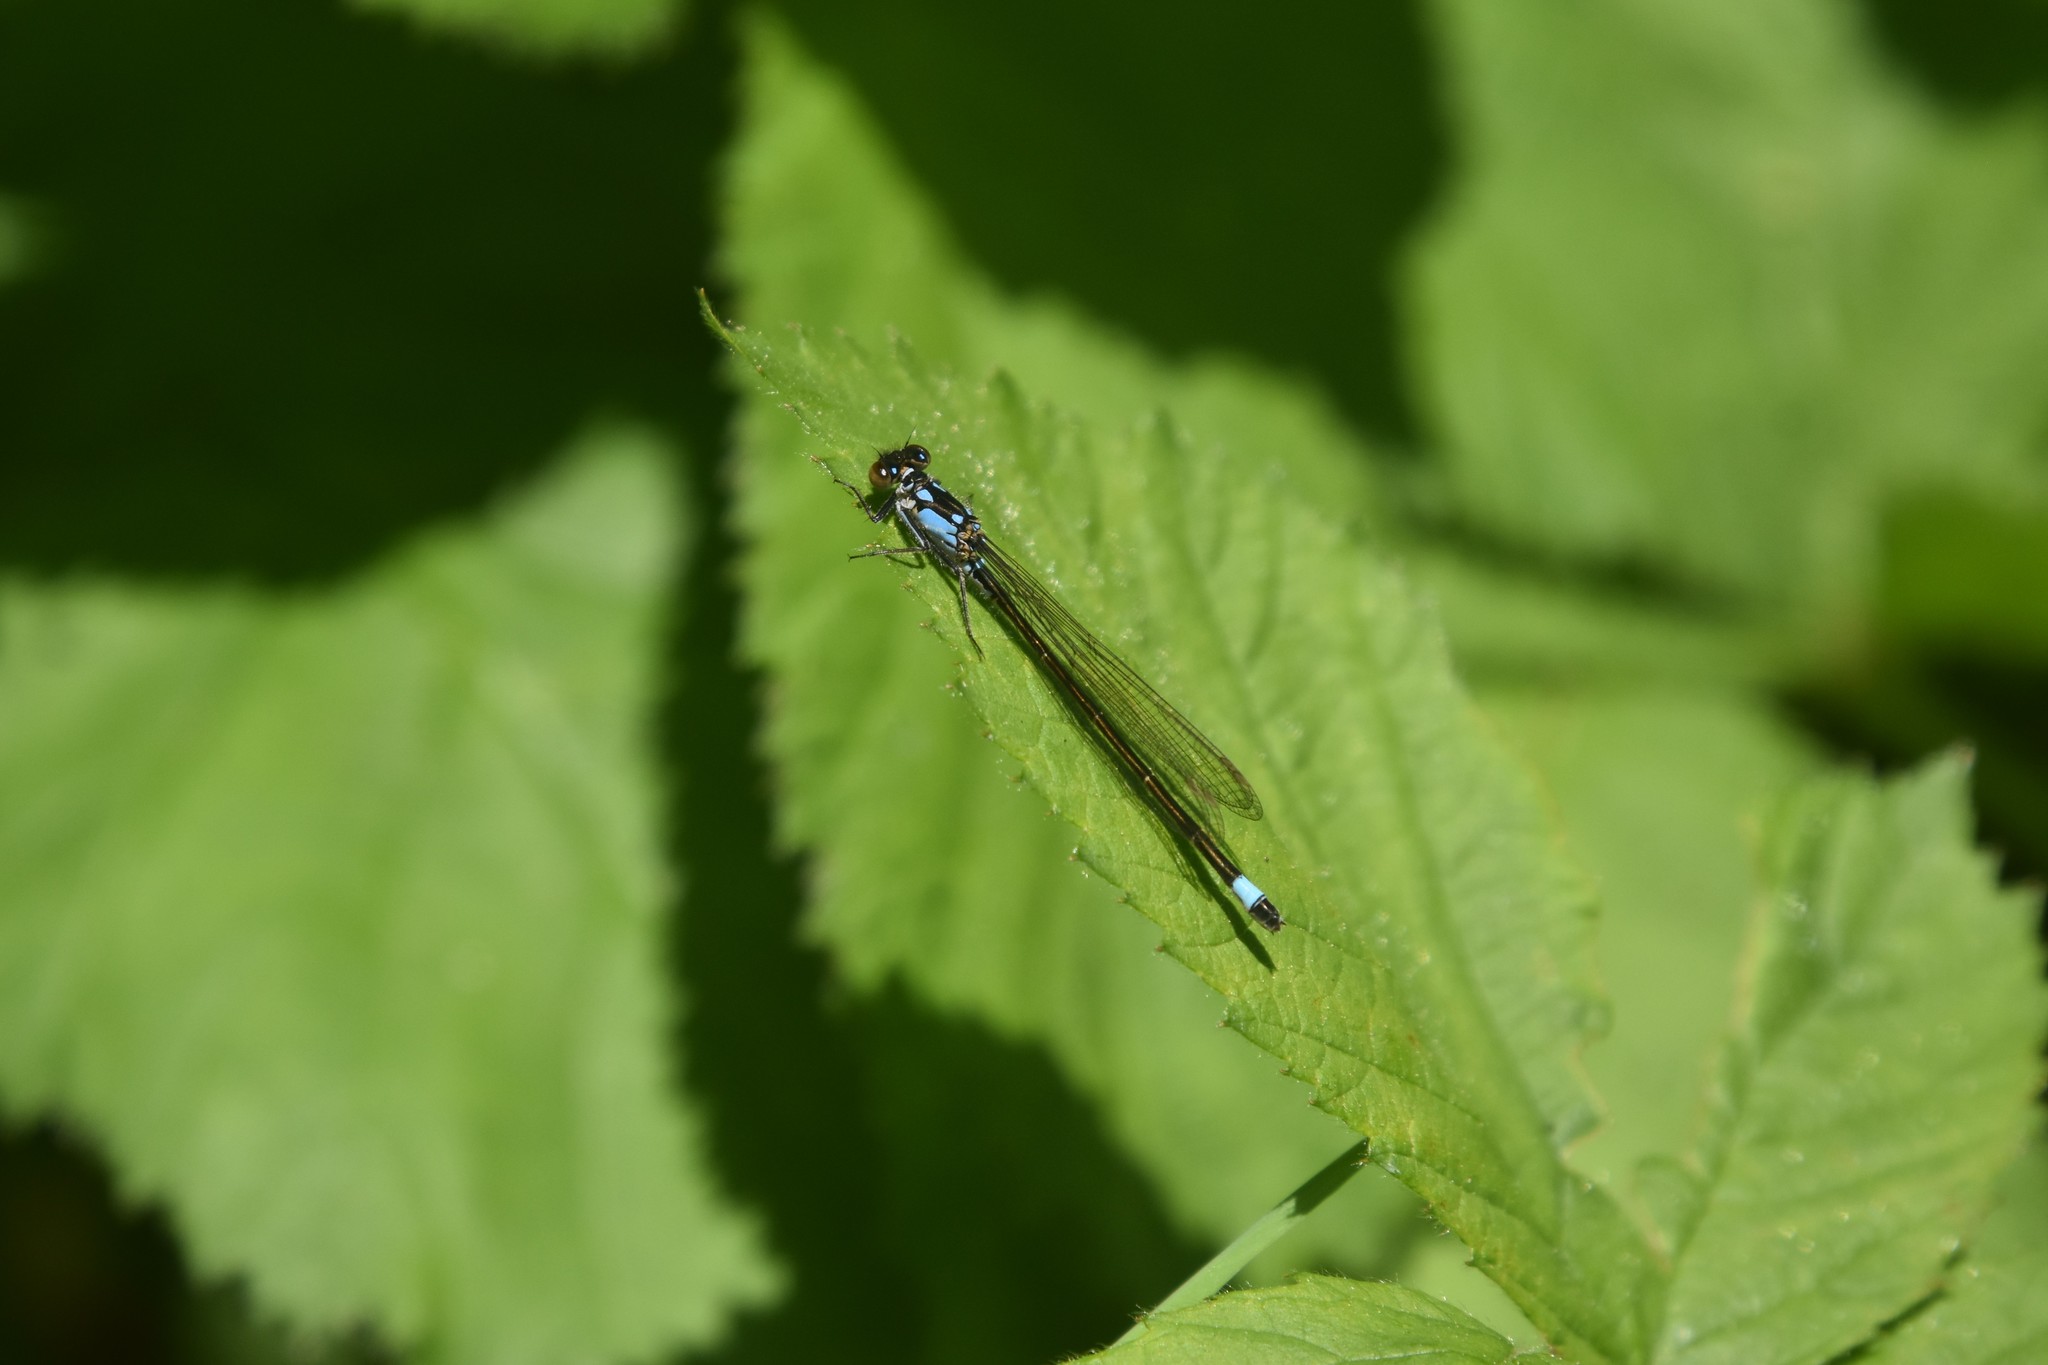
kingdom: Animalia
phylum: Arthropoda
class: Insecta
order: Odonata
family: Coenagrionidae
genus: Ischnura
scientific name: Ischnura cervula
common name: Pacific forktail
